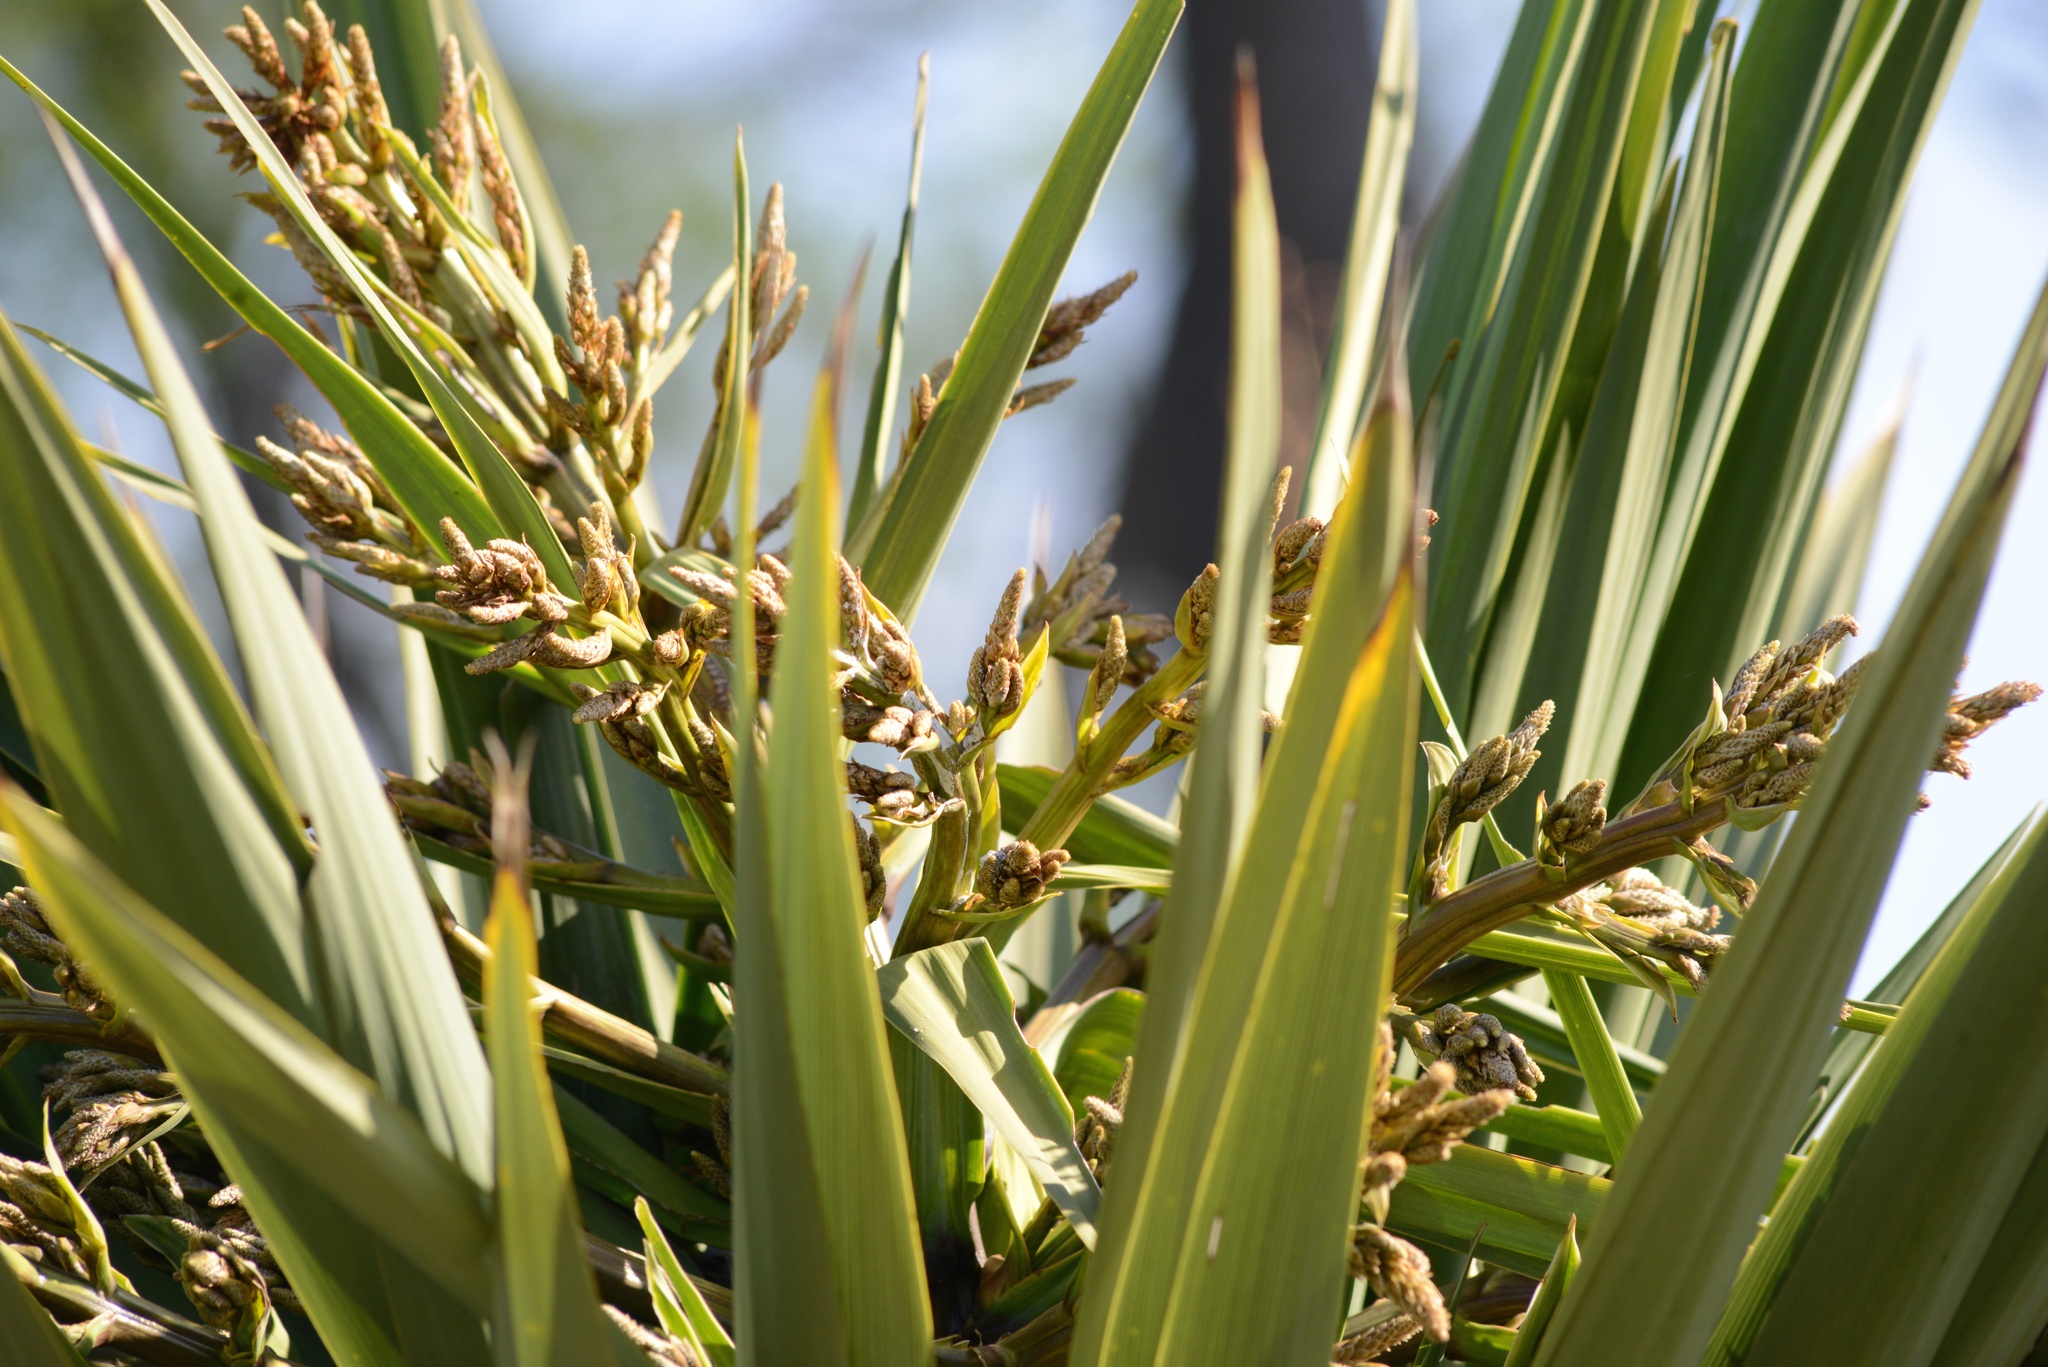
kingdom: Plantae
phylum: Tracheophyta
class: Liliopsida
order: Asparagales
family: Asparagaceae
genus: Cordyline
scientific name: Cordyline australis
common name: Cabbage-palm
